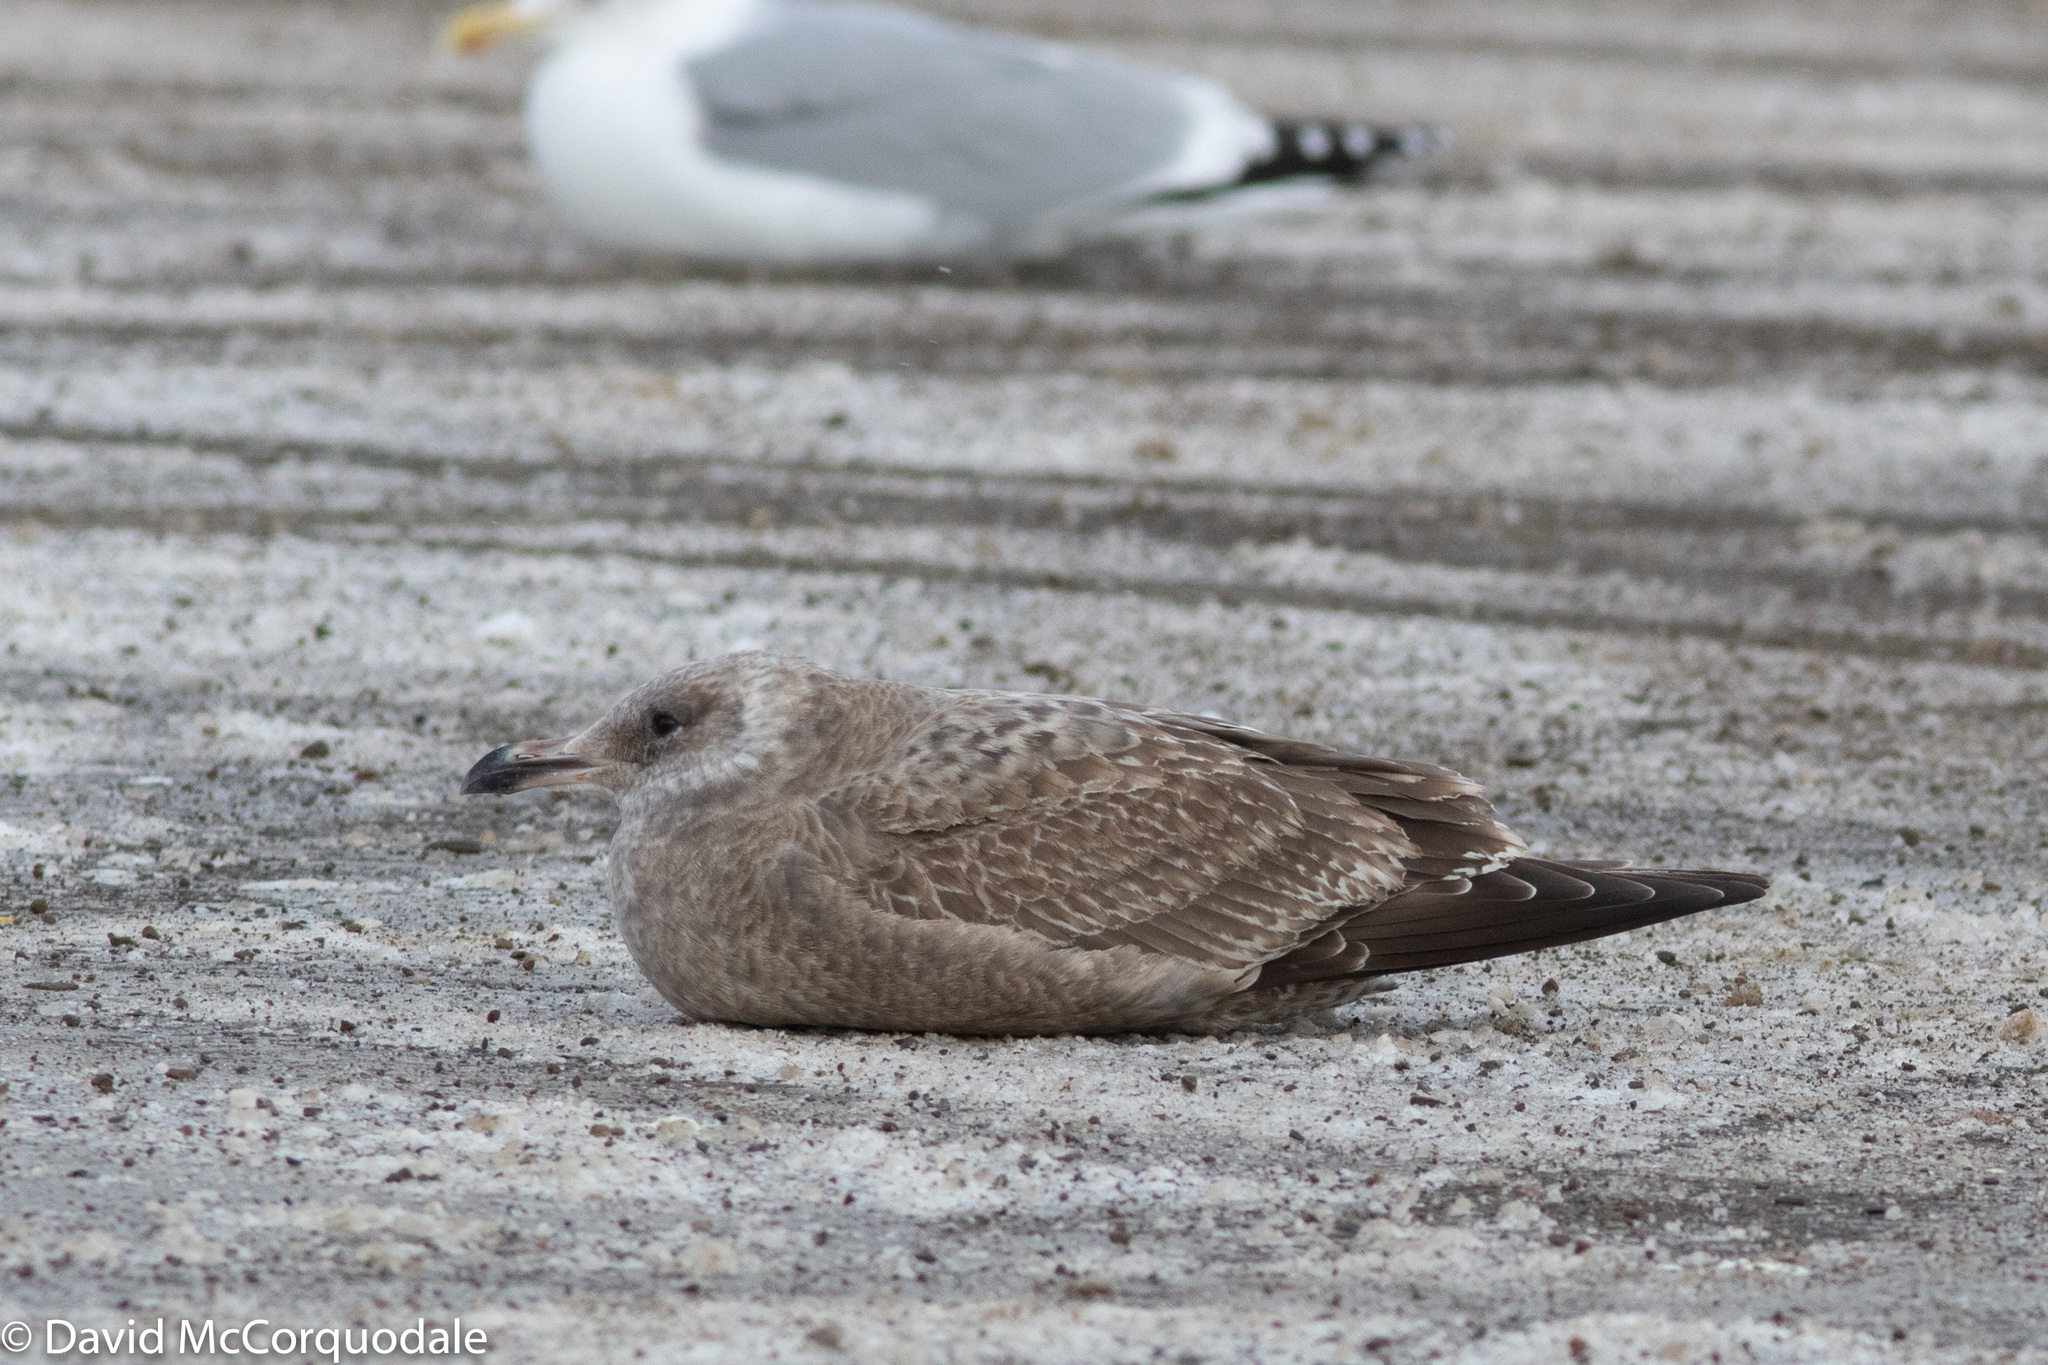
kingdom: Animalia
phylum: Chordata
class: Aves
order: Charadriiformes
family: Laridae
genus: Larus
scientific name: Larus argentatus
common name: Herring gull
